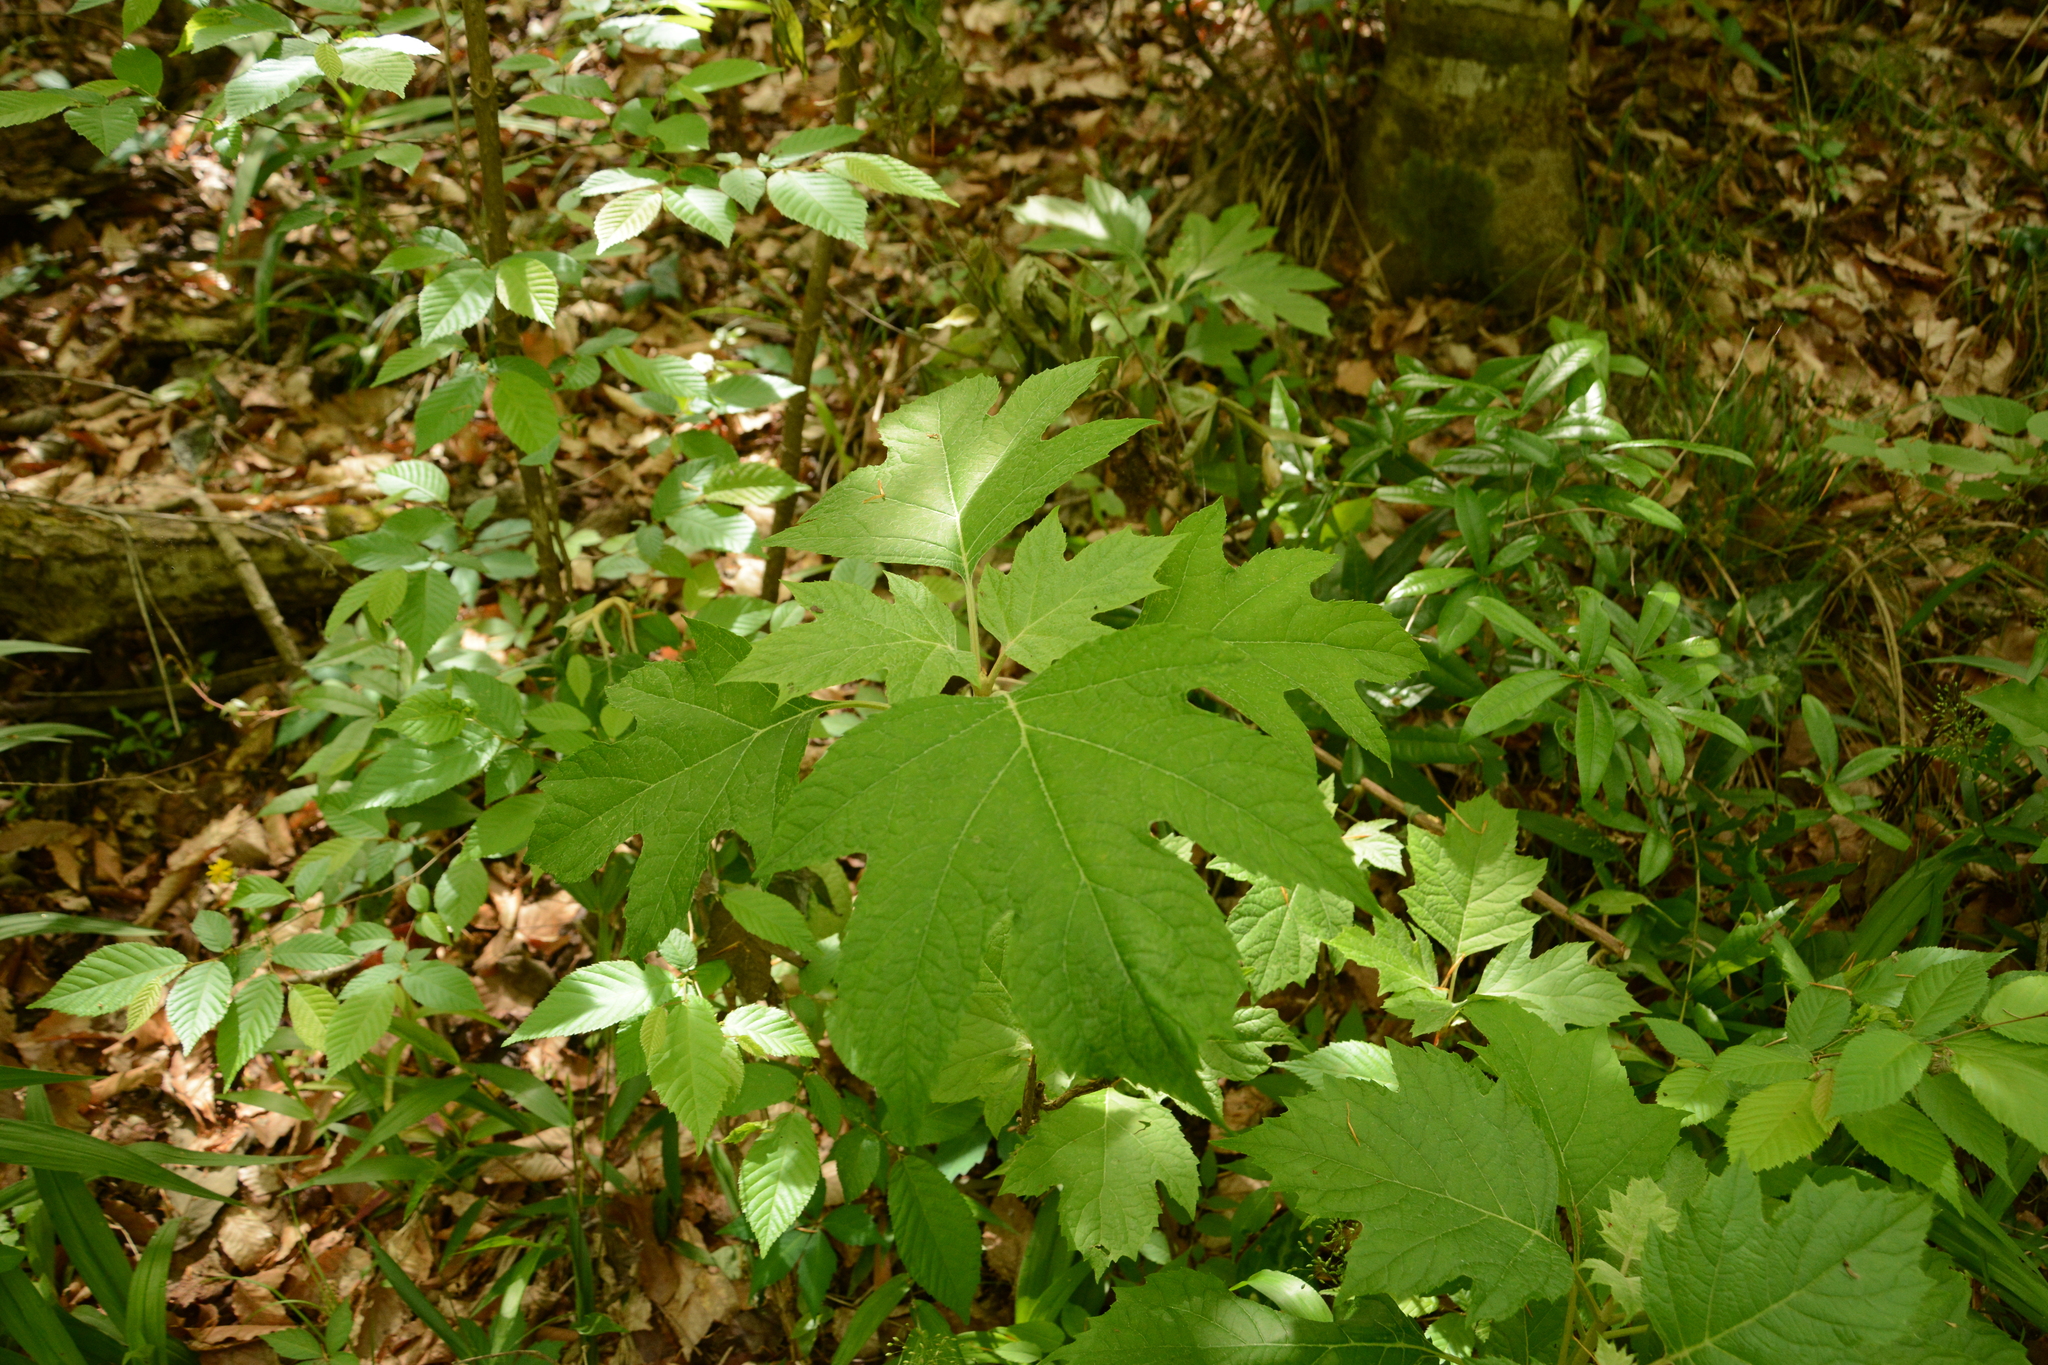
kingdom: Plantae
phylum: Tracheophyta
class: Magnoliopsida
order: Cornales
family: Hydrangeaceae
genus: Hydrangea
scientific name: Hydrangea quercifolia
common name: Oak-leaf hydrangea
